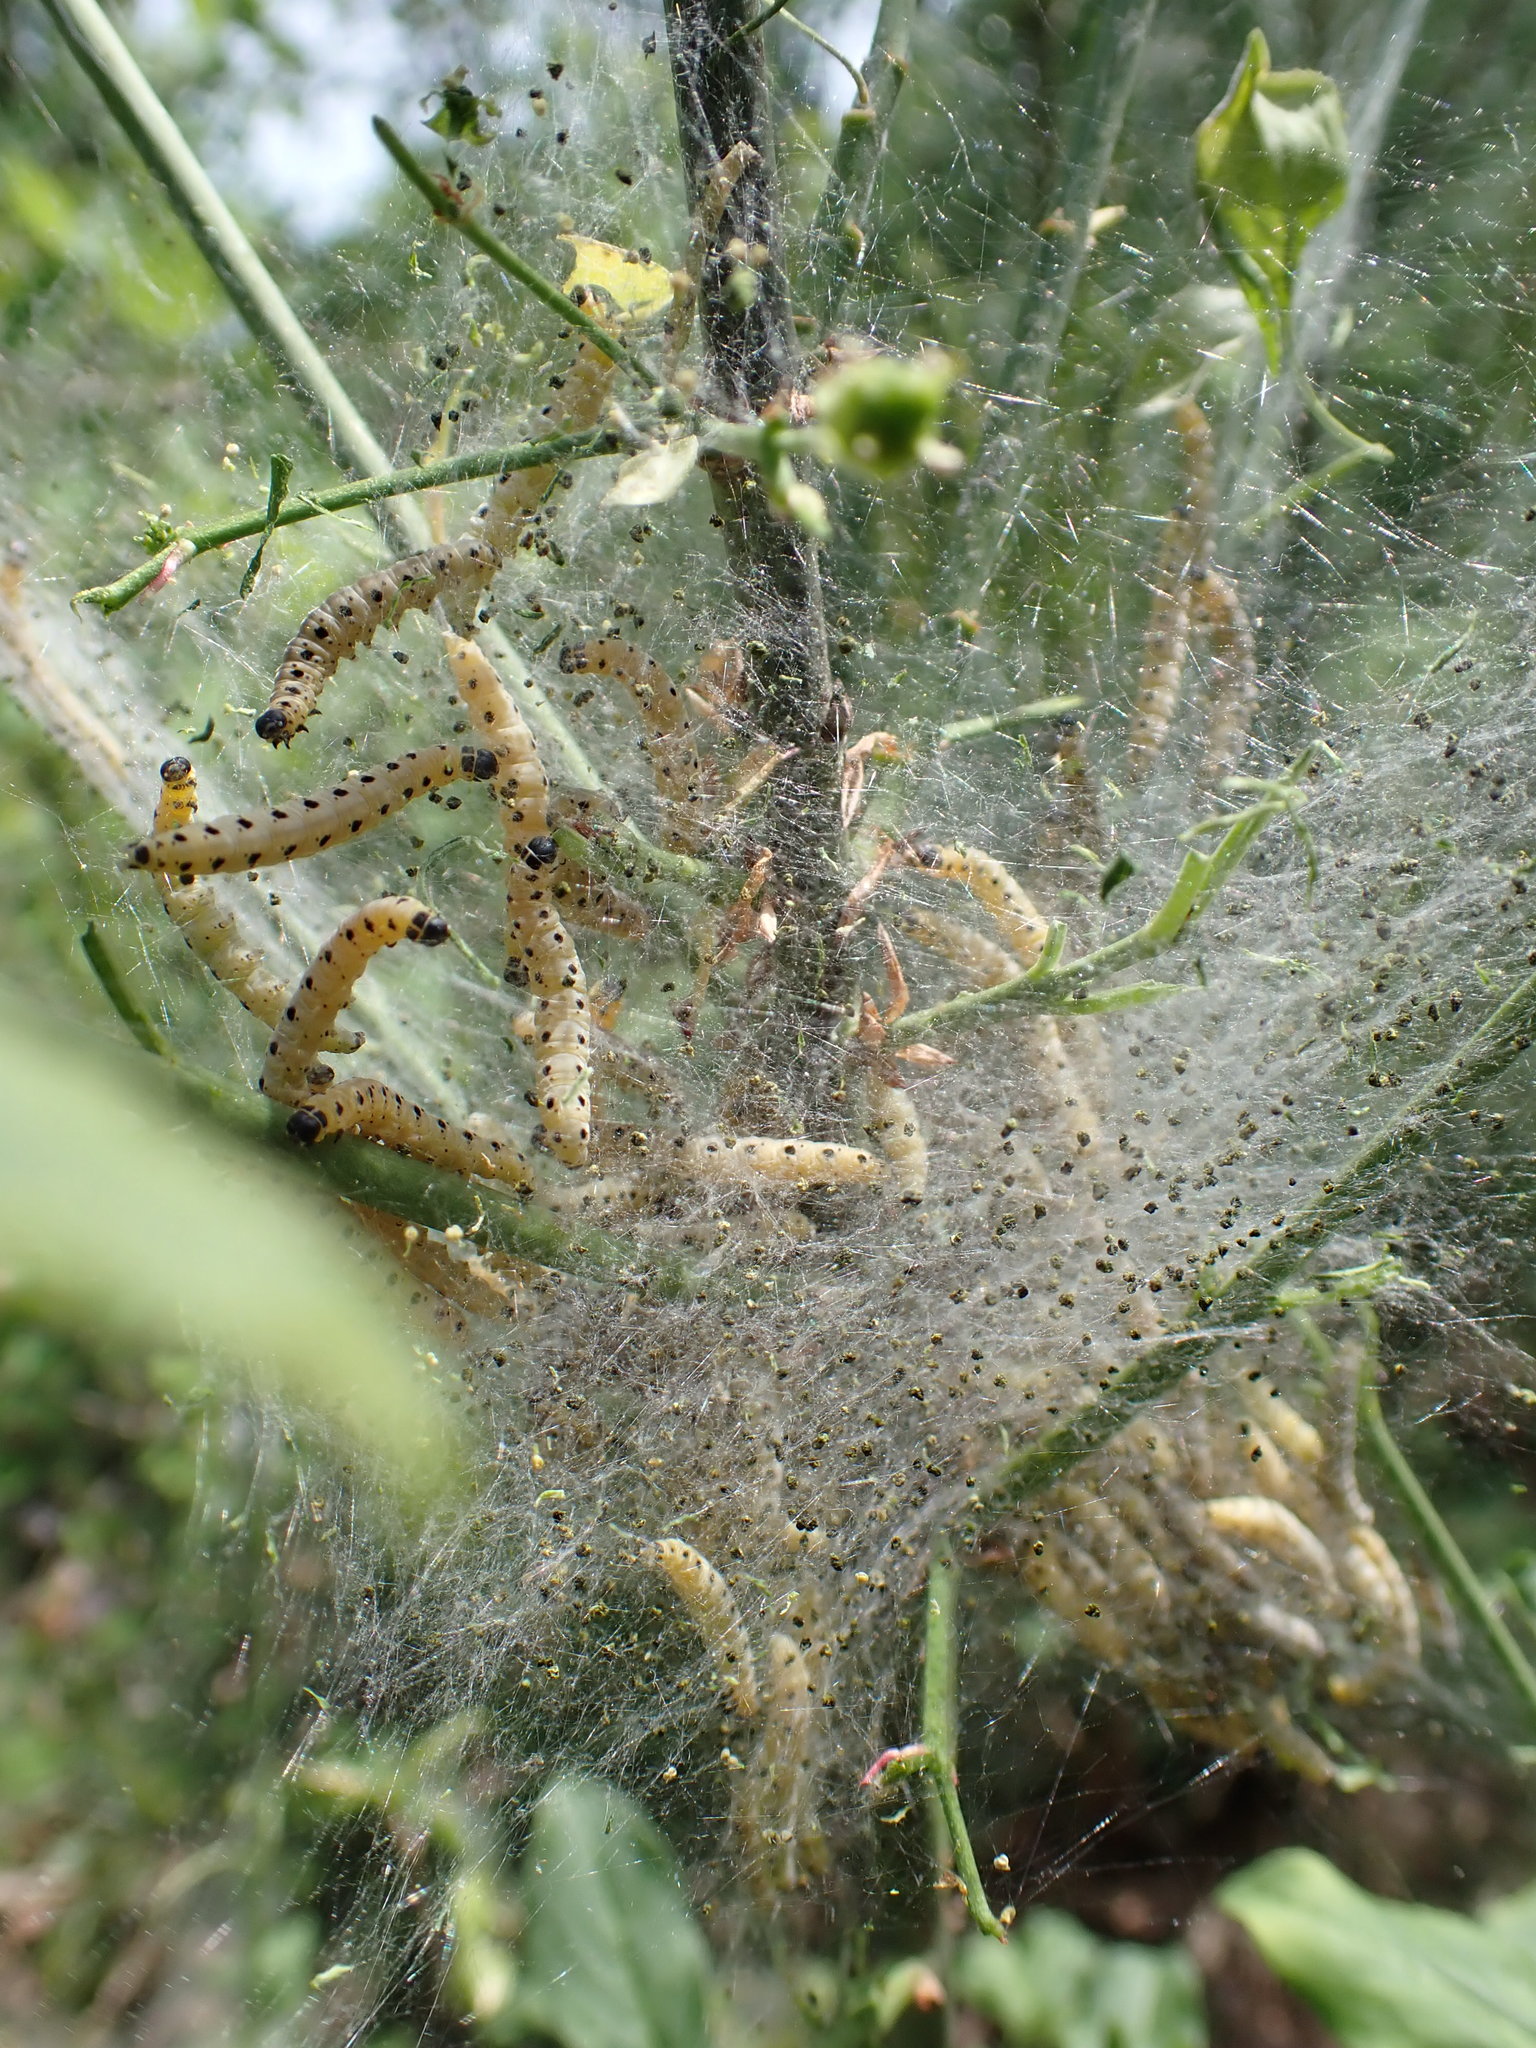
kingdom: Animalia
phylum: Arthropoda
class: Insecta
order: Lepidoptera
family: Yponomeutidae
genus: Yponomeuta
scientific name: Yponomeuta cagnagellus
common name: Spindle ermine
